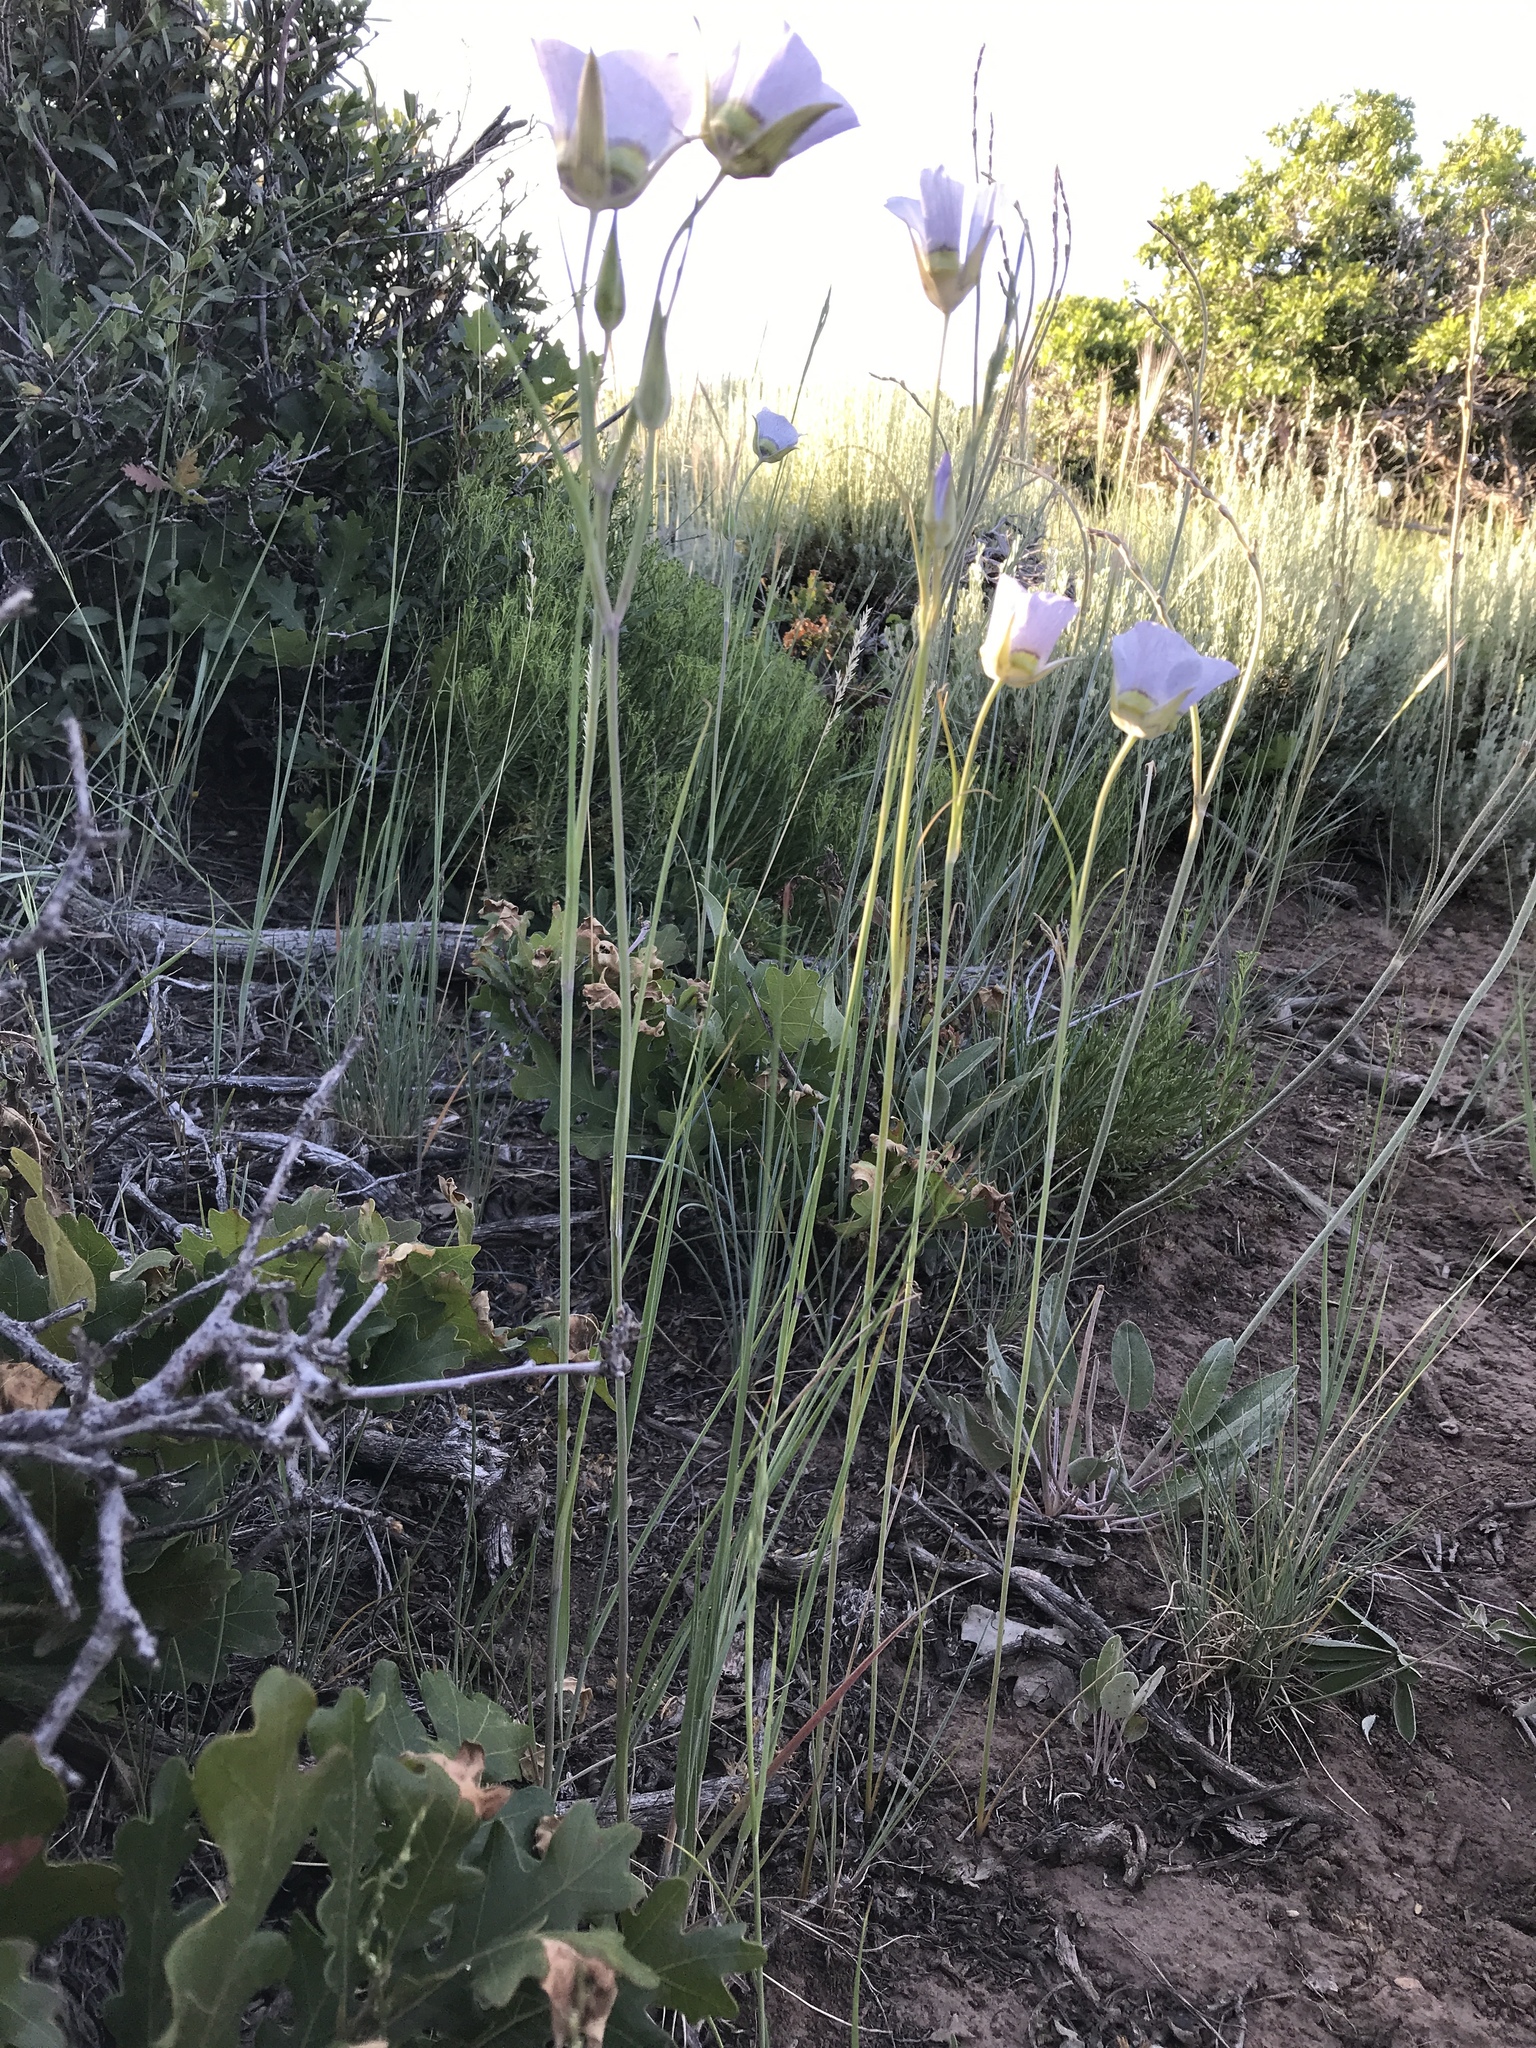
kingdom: Plantae
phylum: Tracheophyta
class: Liliopsida
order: Liliales
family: Liliaceae
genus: Calochortus
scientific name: Calochortus gunnisonii
